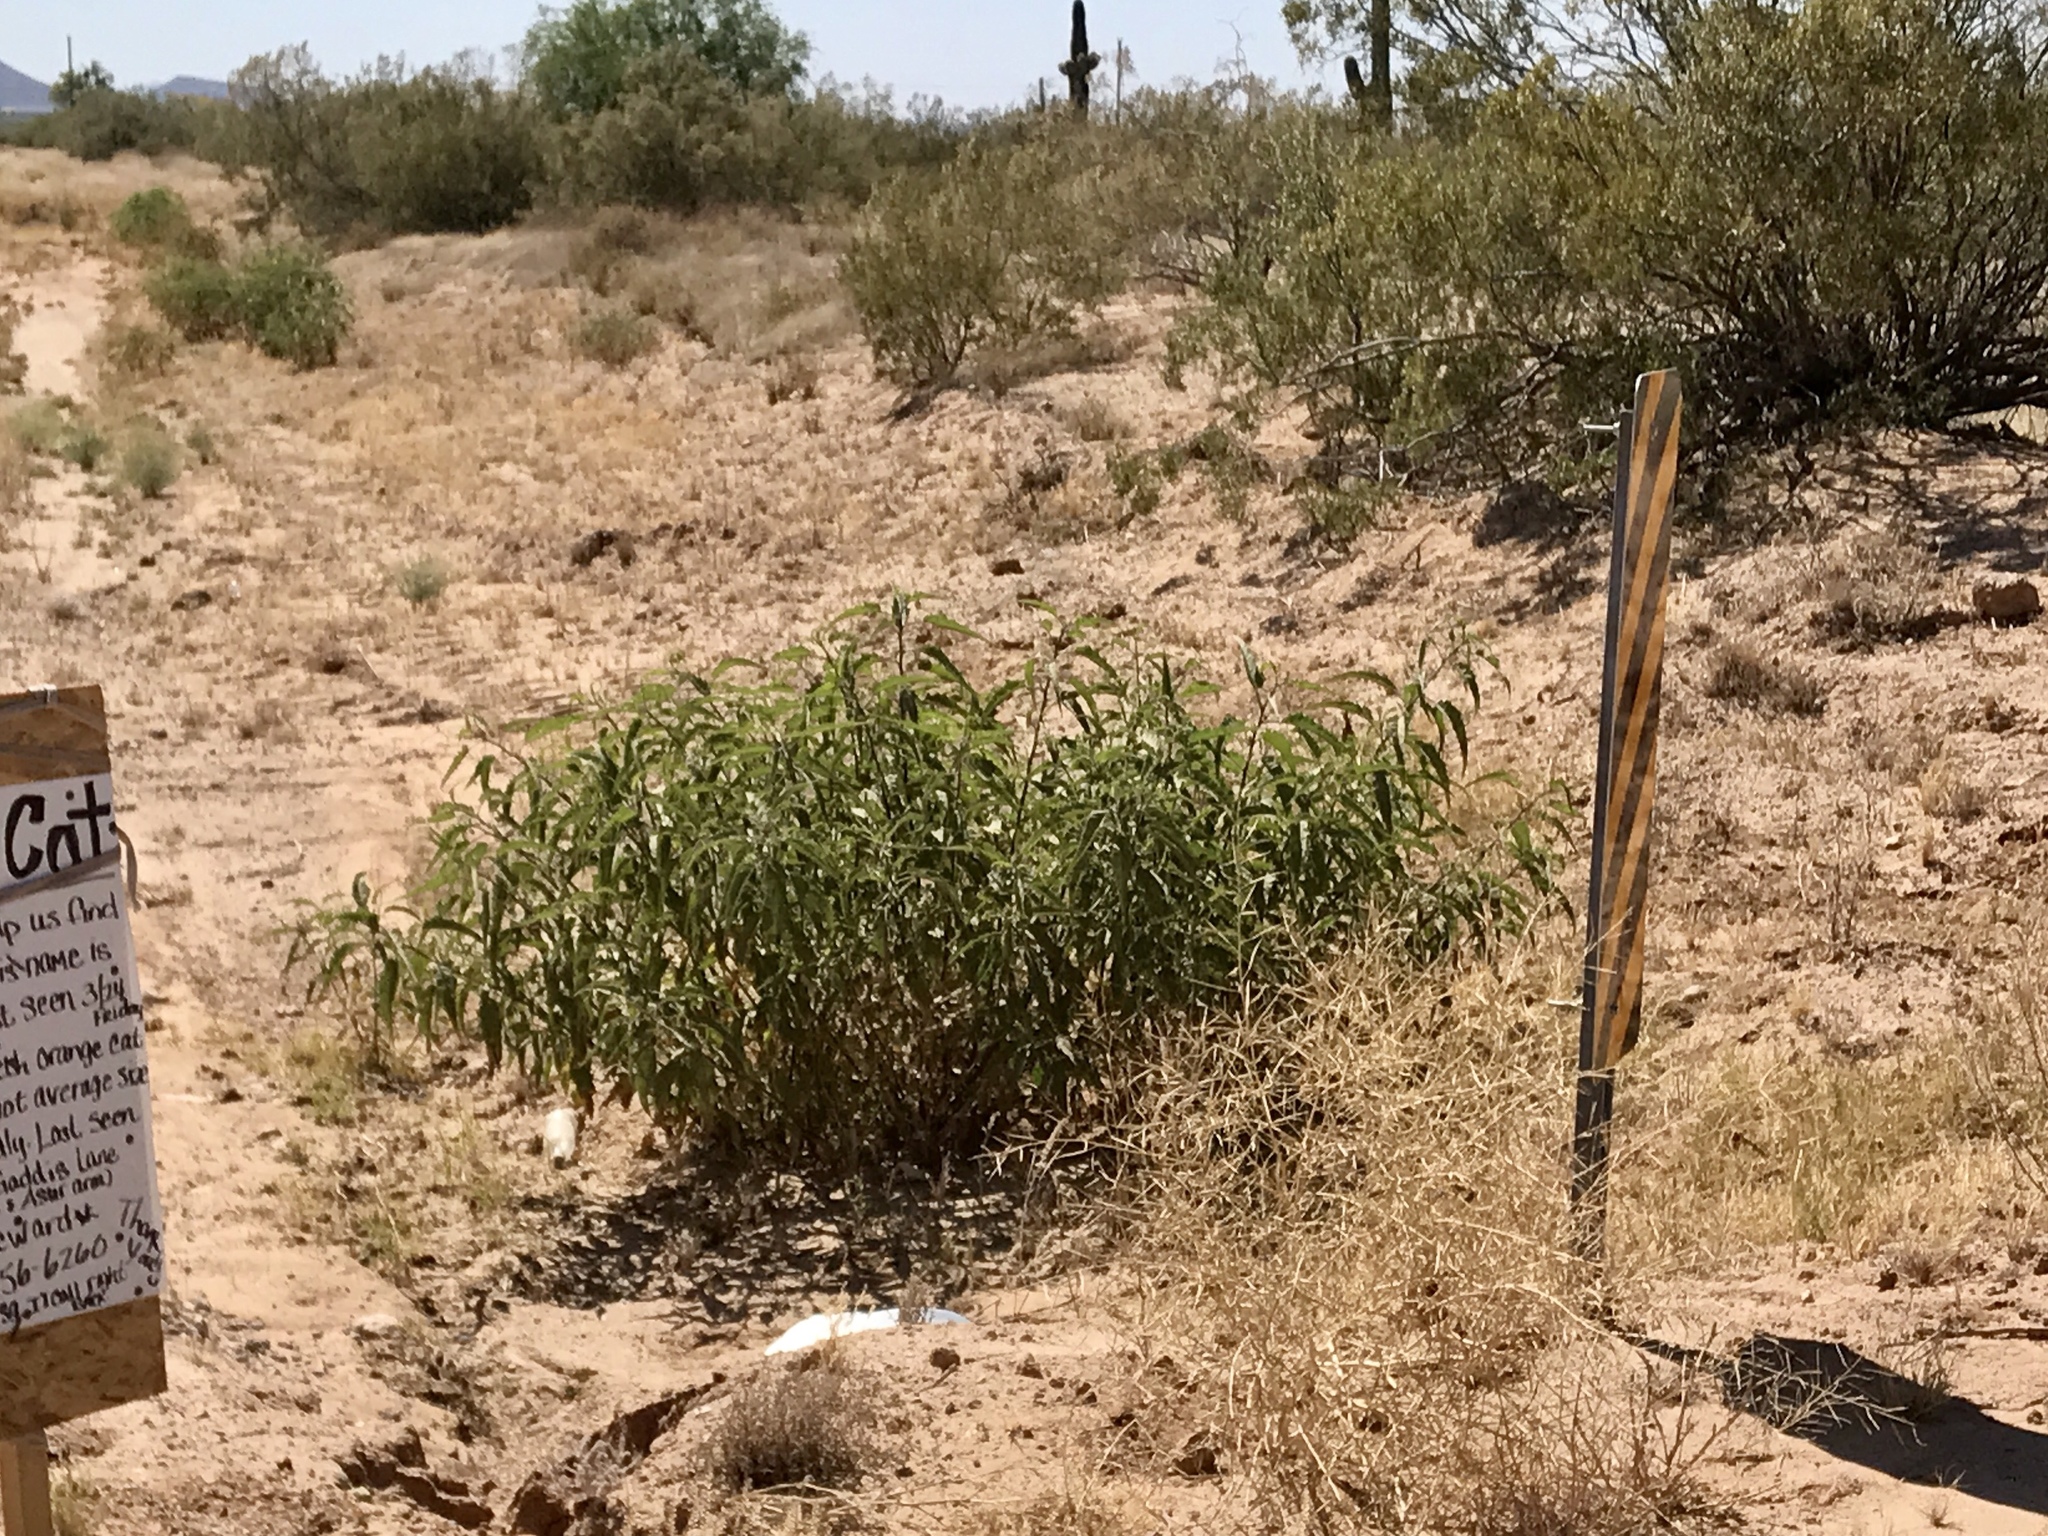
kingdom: Plantae
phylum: Tracheophyta
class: Magnoliopsida
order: Asterales
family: Asteraceae
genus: Ambrosia
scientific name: Ambrosia ambrosioides
